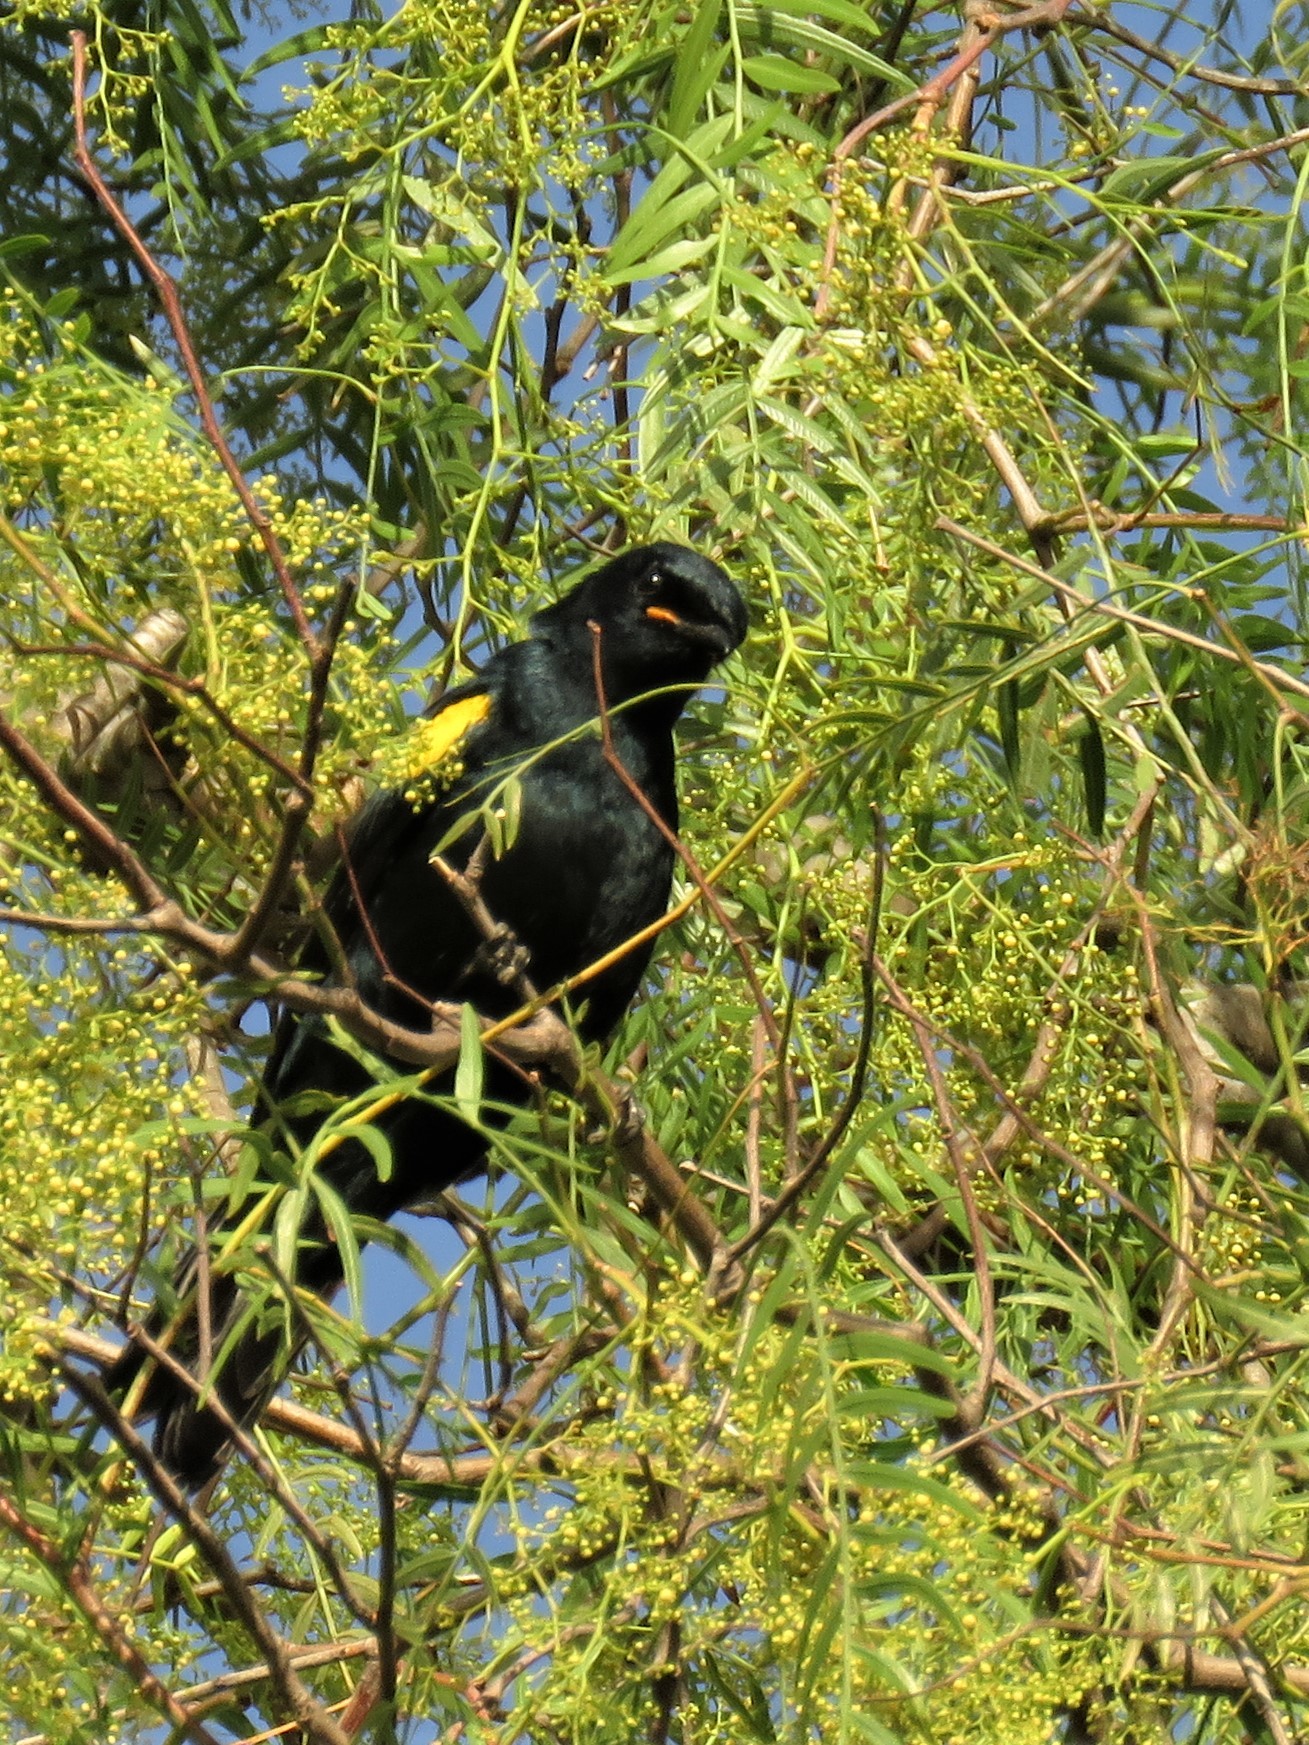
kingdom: Animalia
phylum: Chordata
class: Aves
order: Passeriformes
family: Campephagidae
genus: Campephaga
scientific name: Campephaga flava
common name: Black cuckooshrike
